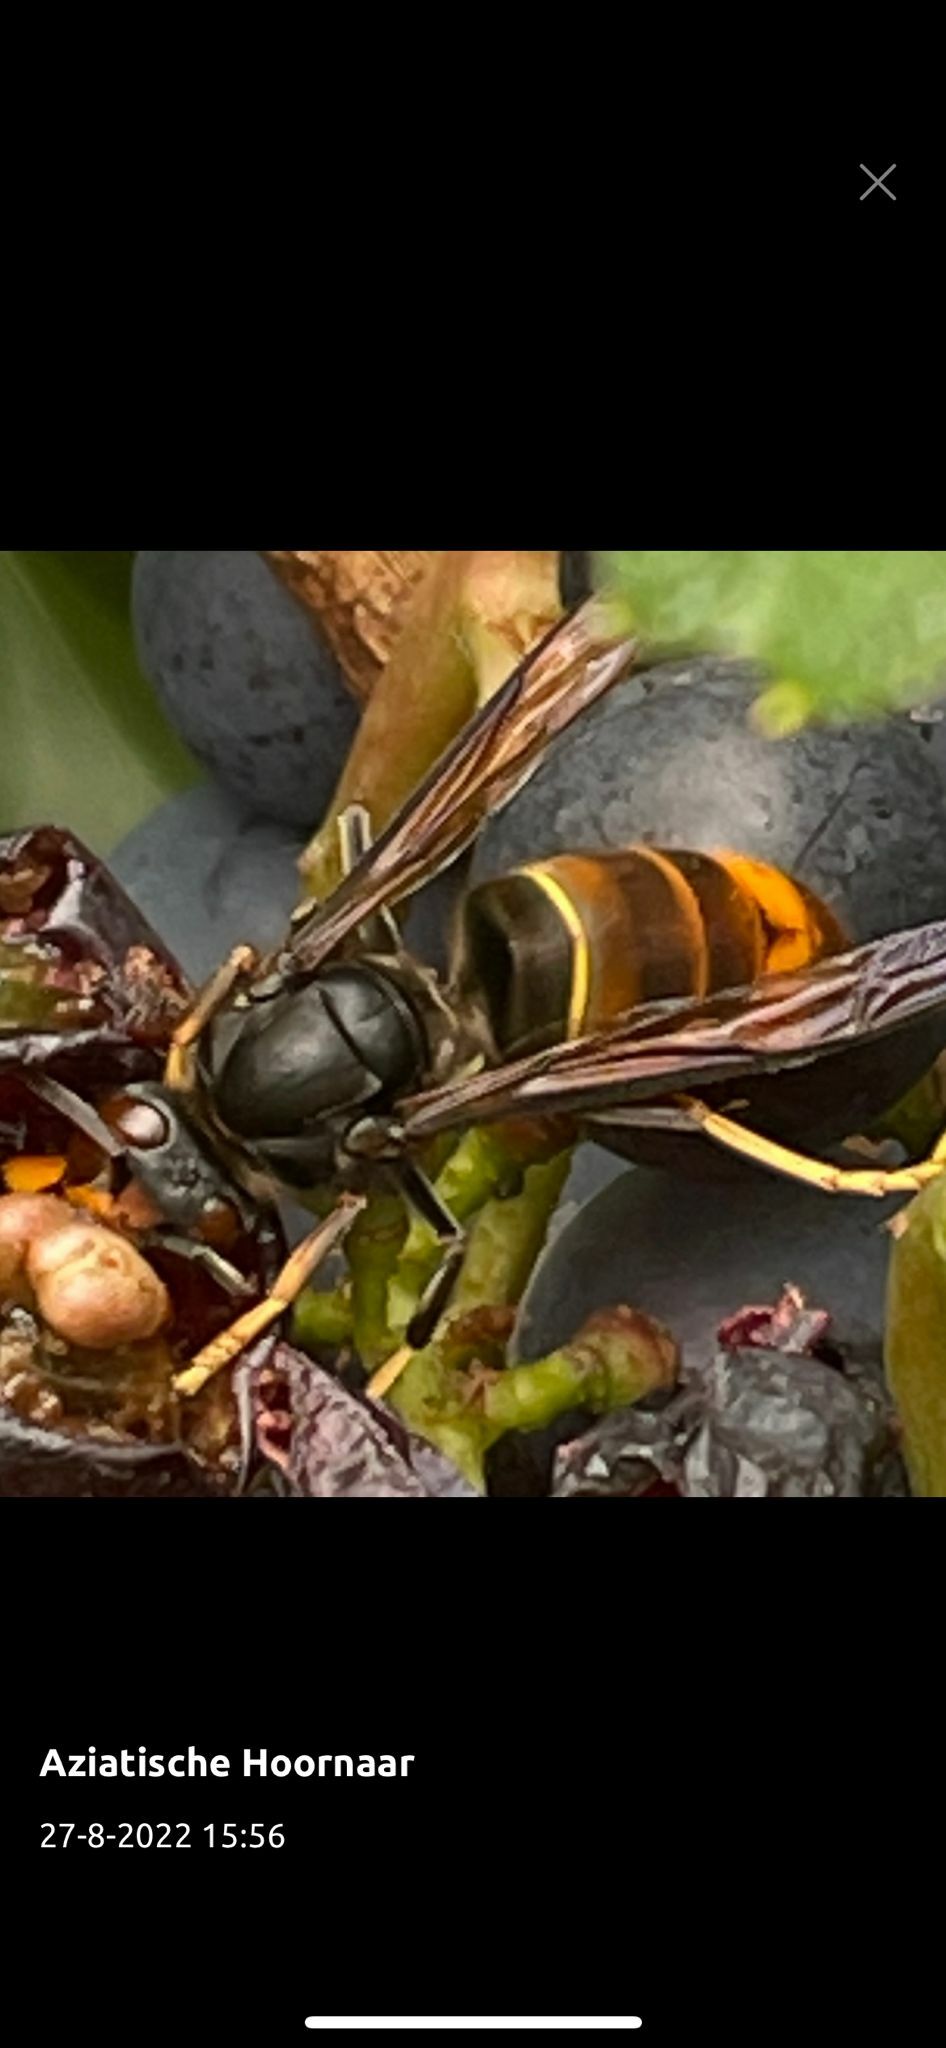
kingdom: Animalia
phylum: Arthropoda
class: Insecta
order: Hymenoptera
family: Vespidae
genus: Vespa
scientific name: Vespa velutina
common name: Asian hornet
